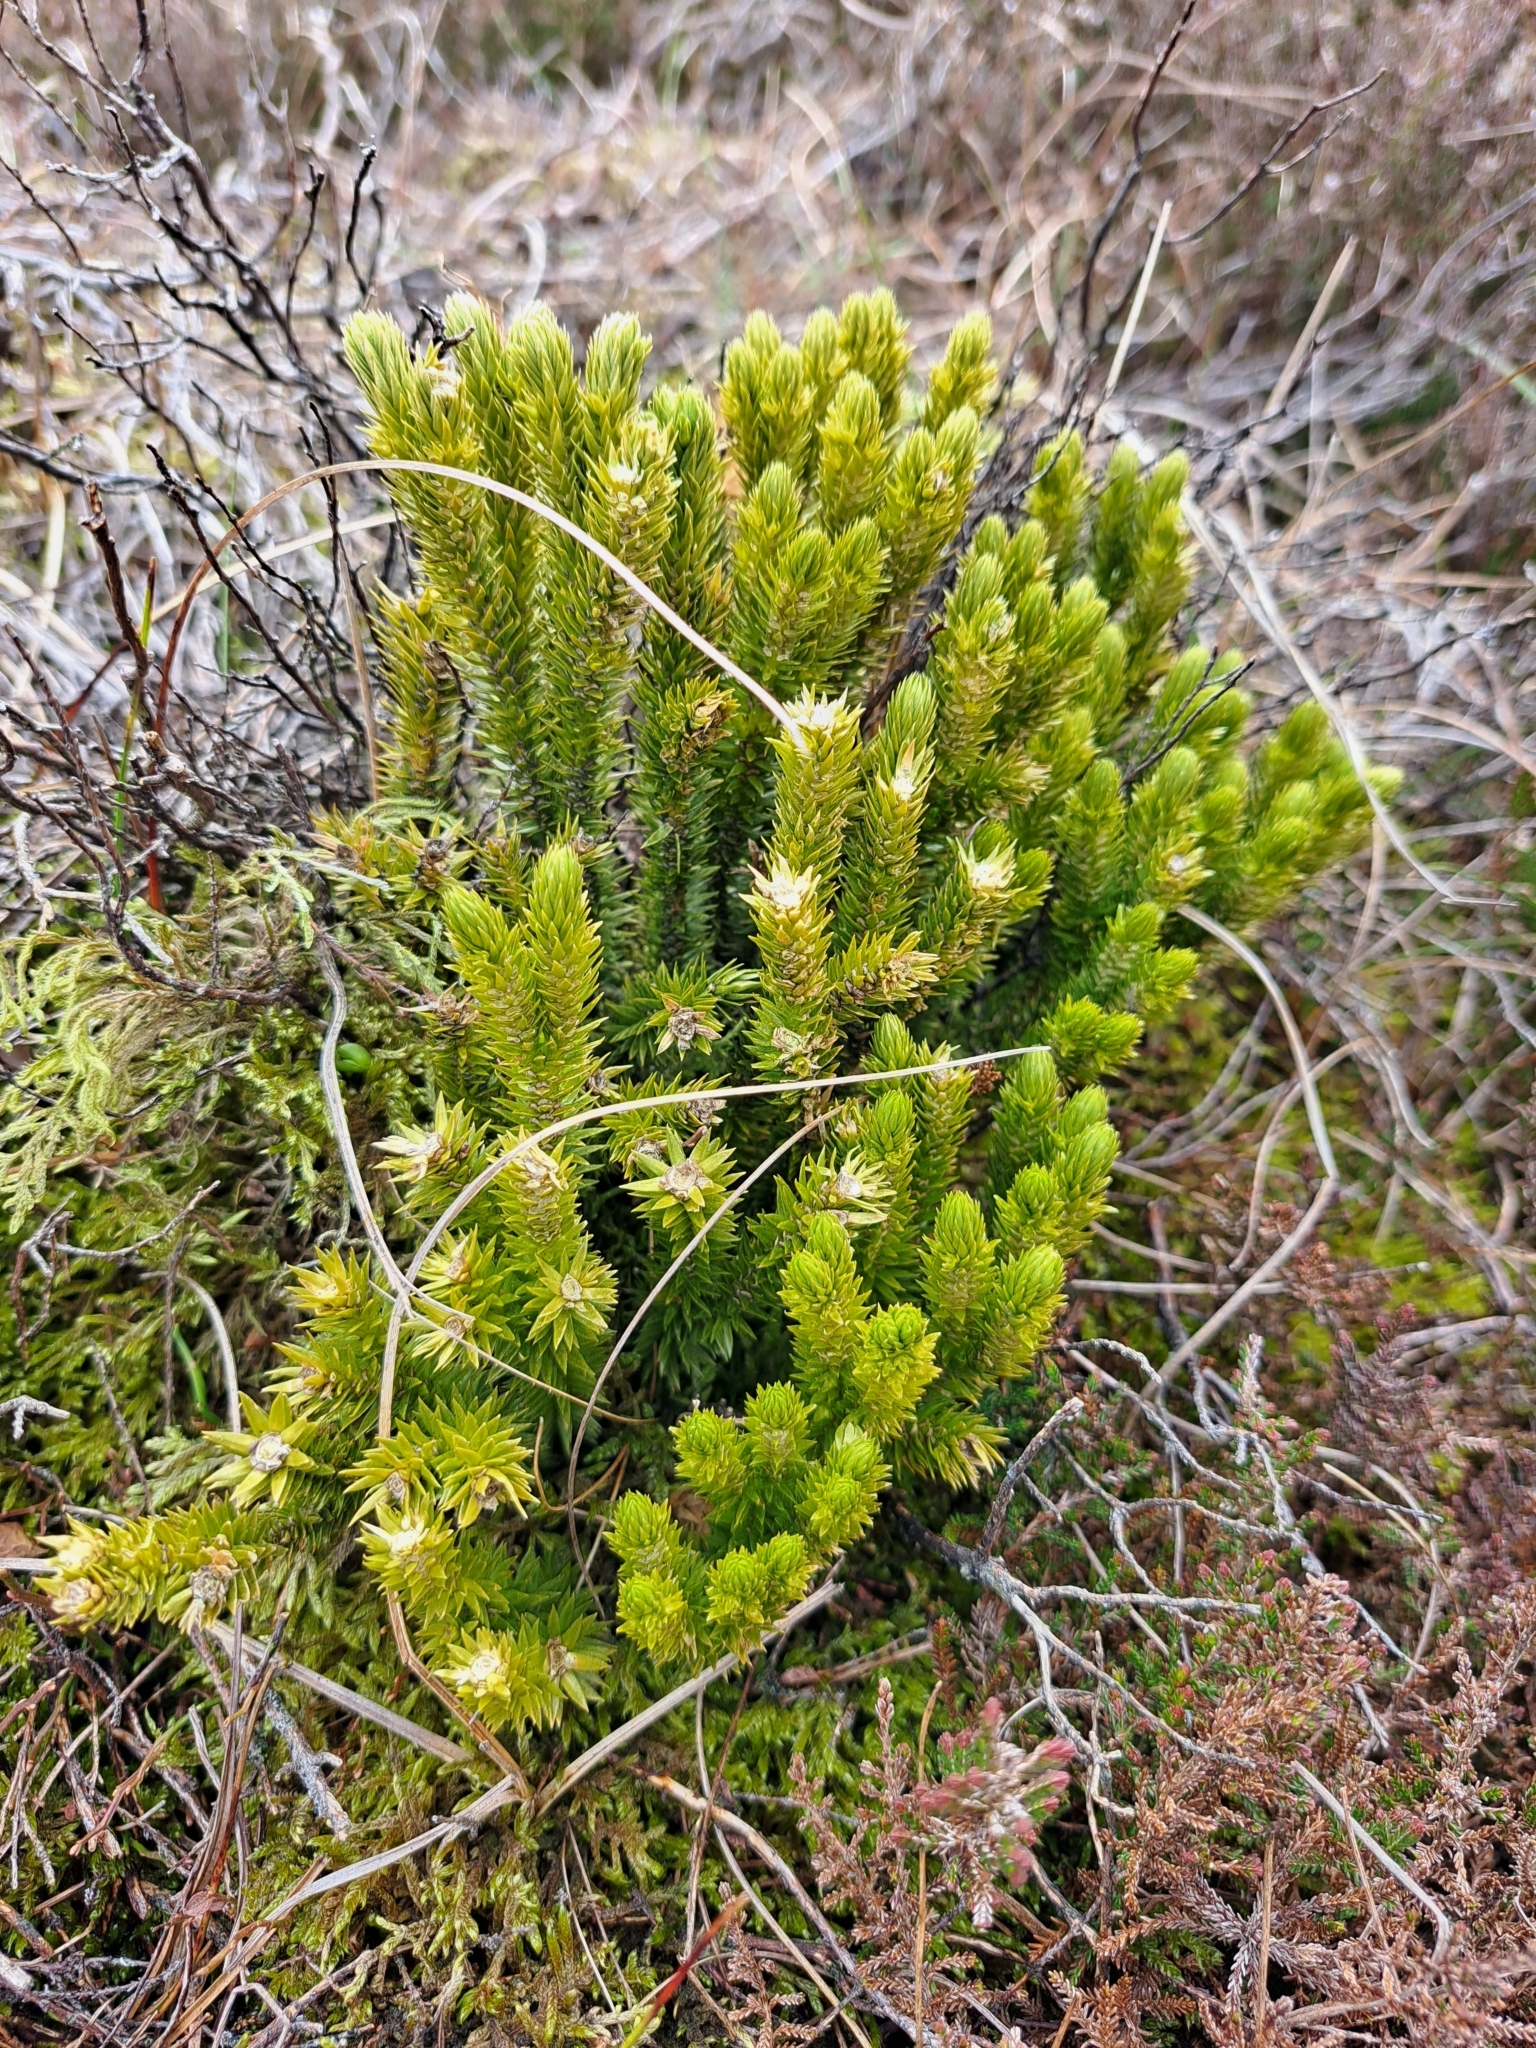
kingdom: Plantae
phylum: Tracheophyta
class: Lycopodiopsida
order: Lycopodiales
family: Lycopodiaceae
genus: Huperzia
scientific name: Huperzia selago
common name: Northern firmoss
